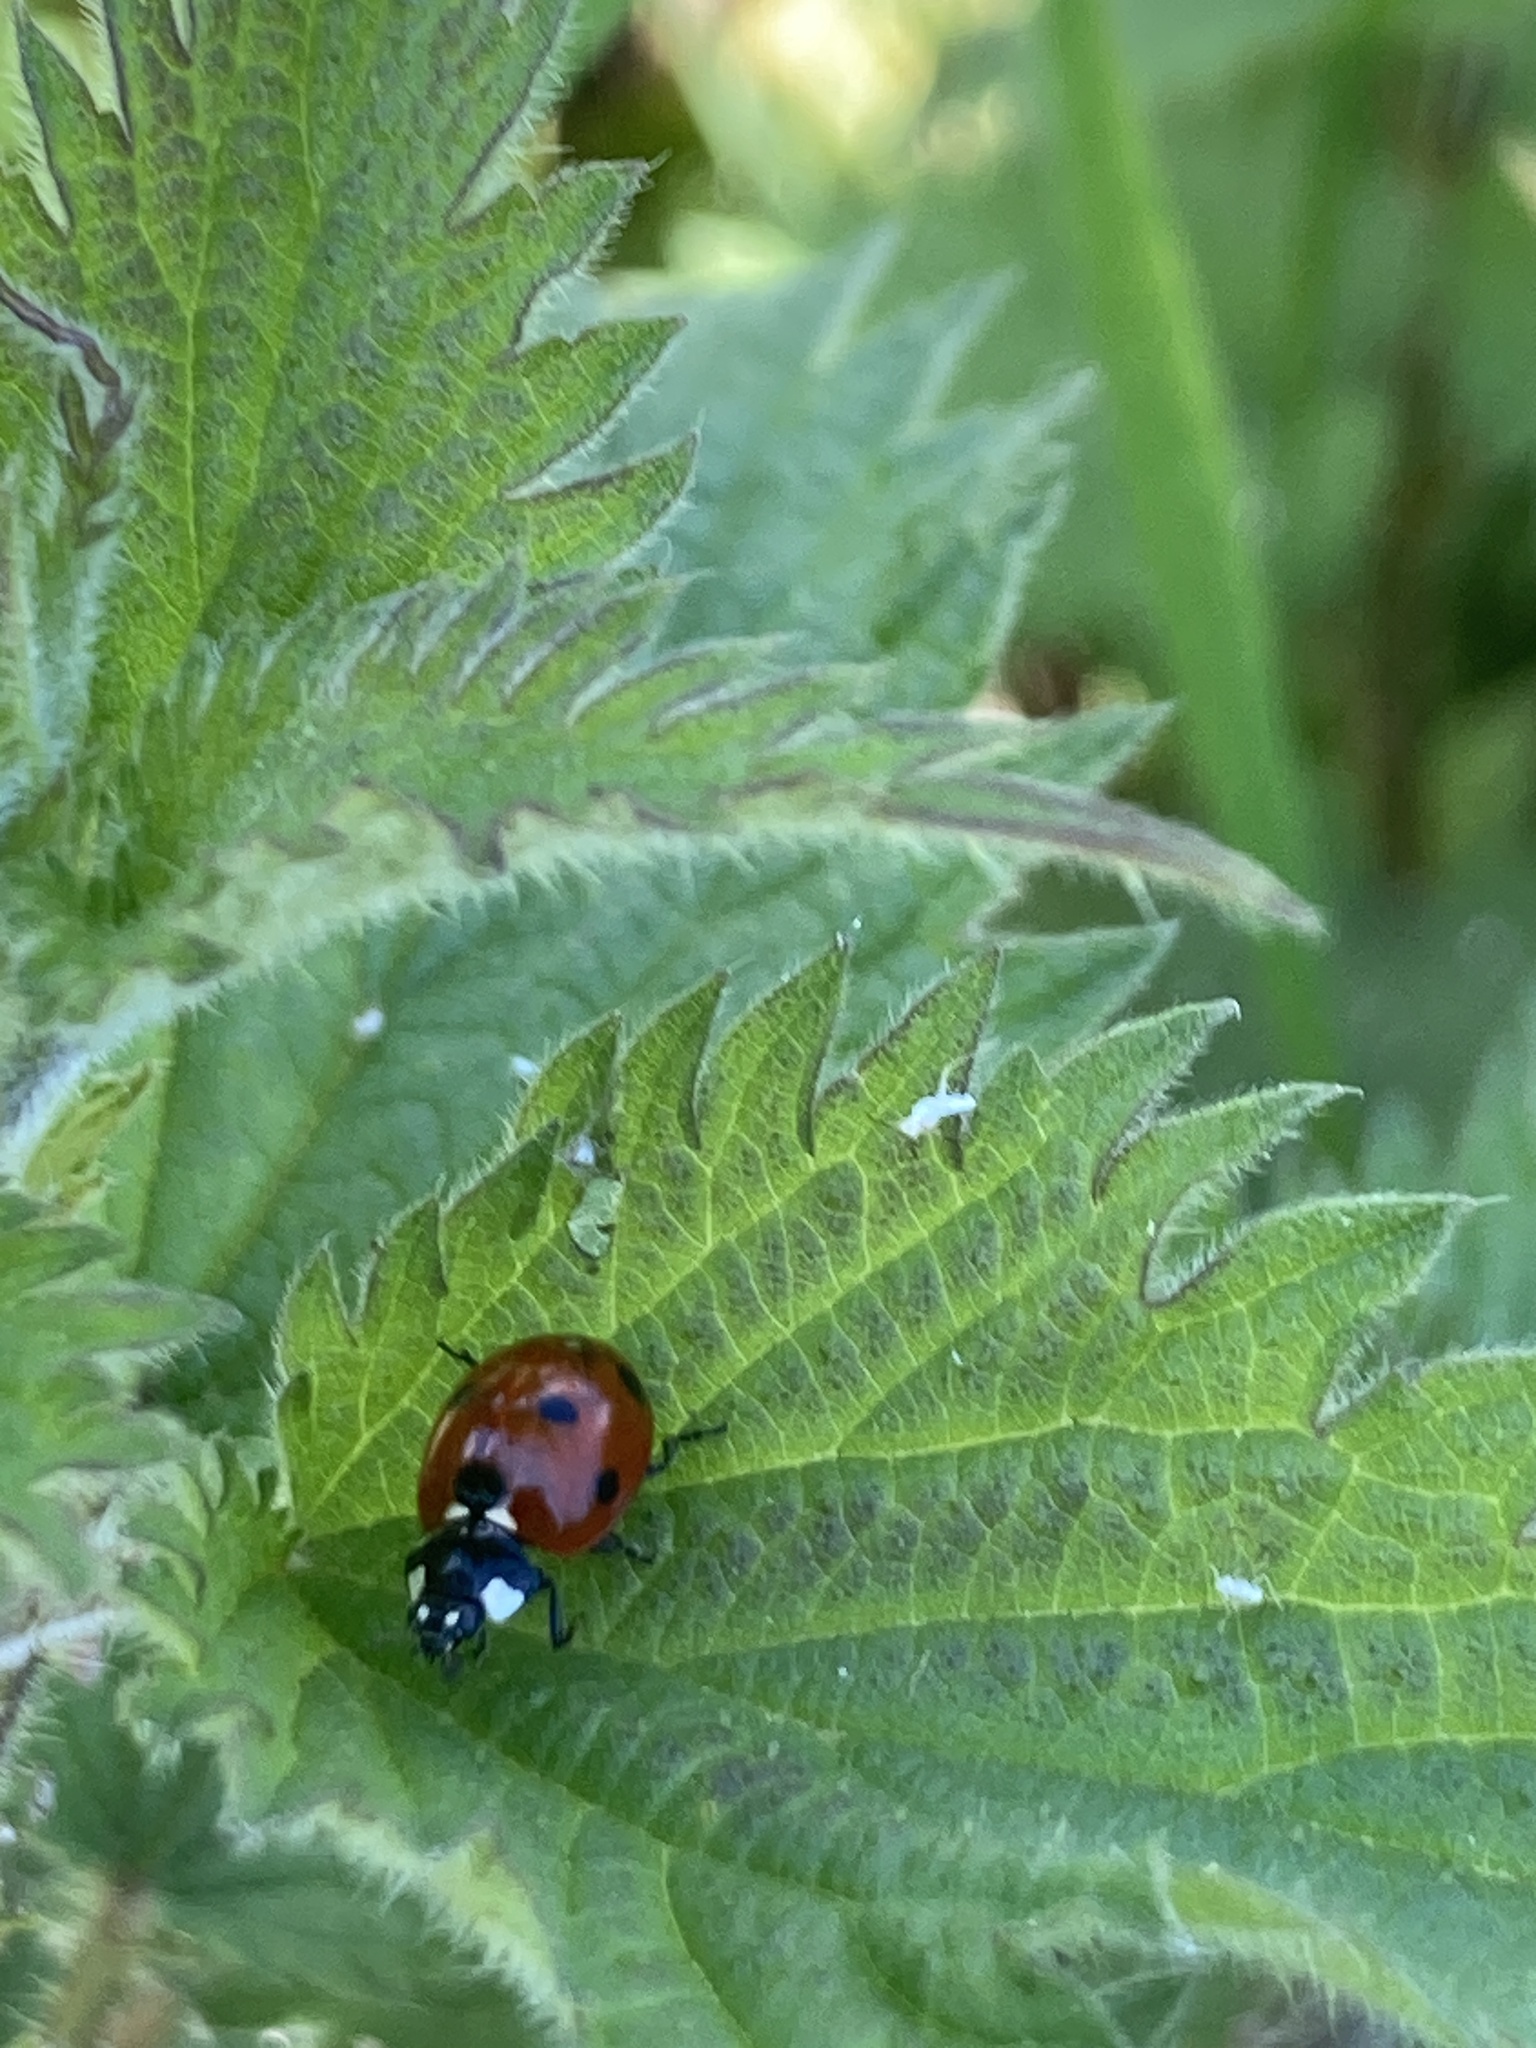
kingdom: Animalia
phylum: Arthropoda
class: Insecta
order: Coleoptera
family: Coccinellidae
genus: Coccinella
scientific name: Coccinella septempunctata
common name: Sevenspotted lady beetle
